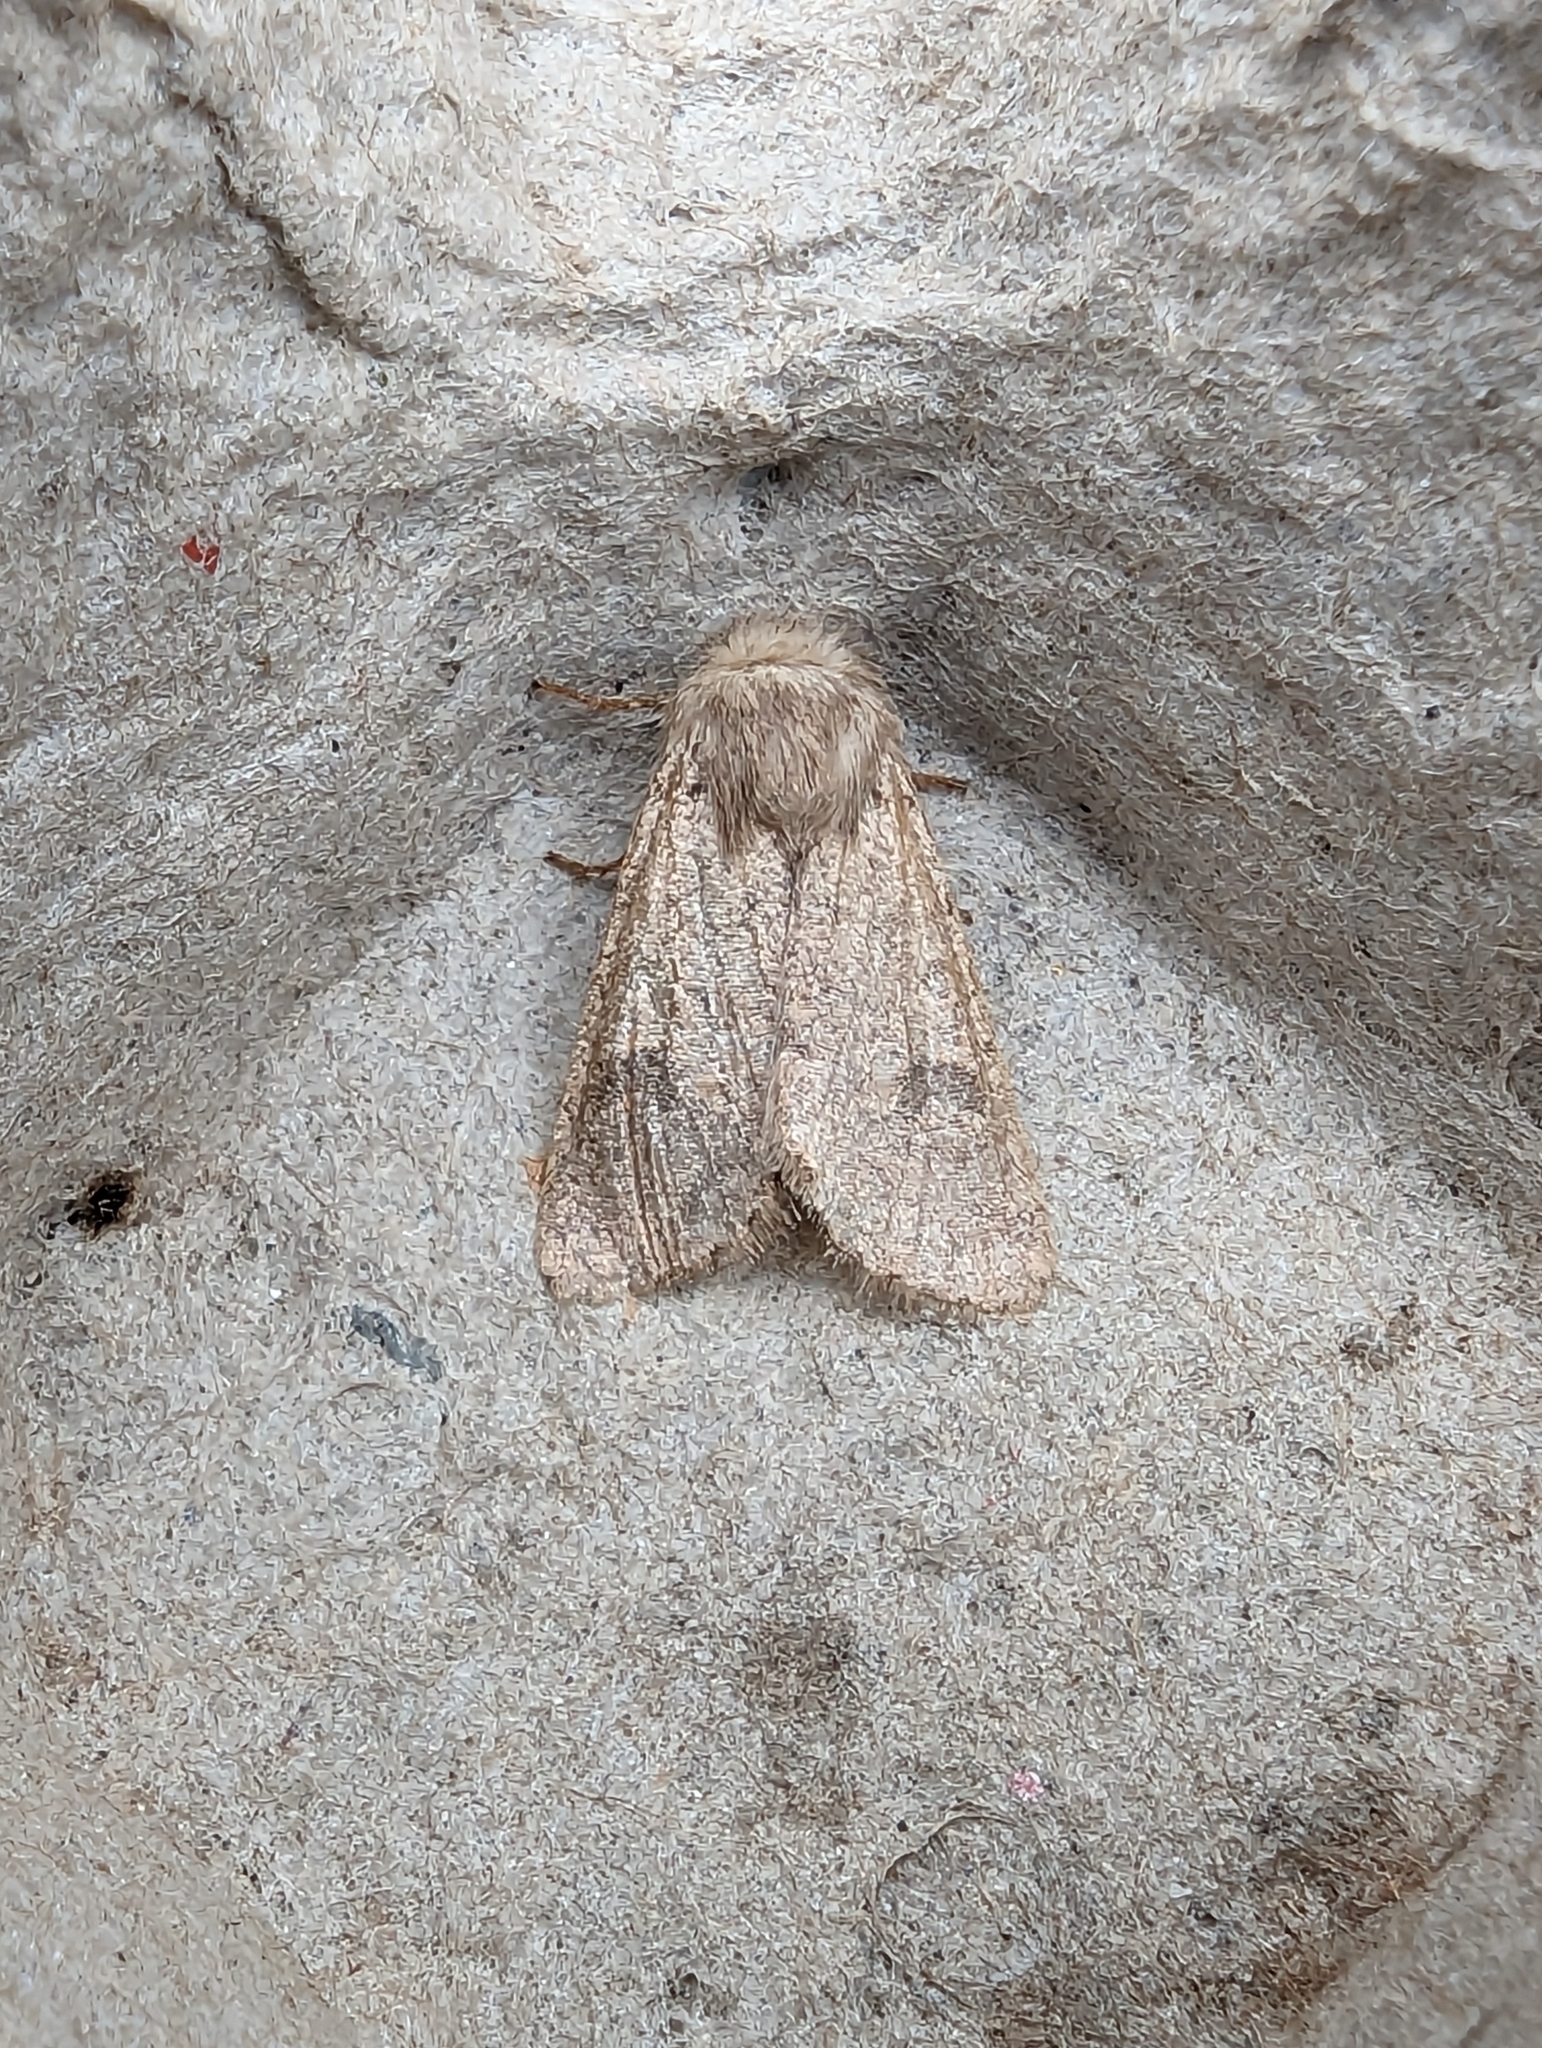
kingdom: Animalia
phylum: Arthropoda
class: Insecta
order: Lepidoptera
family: Noctuidae
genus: Orthosia
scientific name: Orthosia cruda
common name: Small quaker
